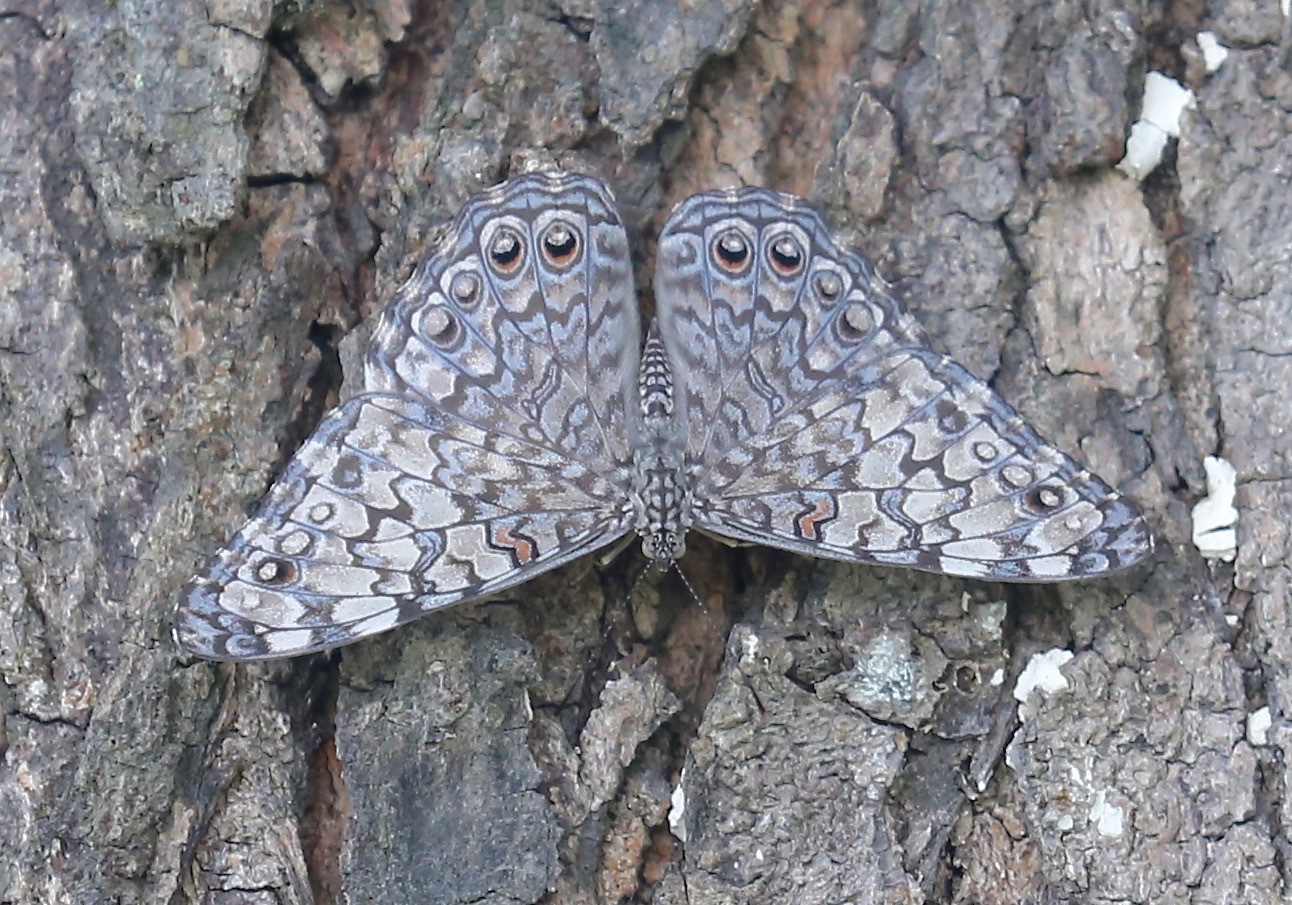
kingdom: Animalia
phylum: Arthropoda
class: Insecta
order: Lepidoptera
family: Nymphalidae
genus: Hamadryas
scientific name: Hamadryas februa
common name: Gray cracker
